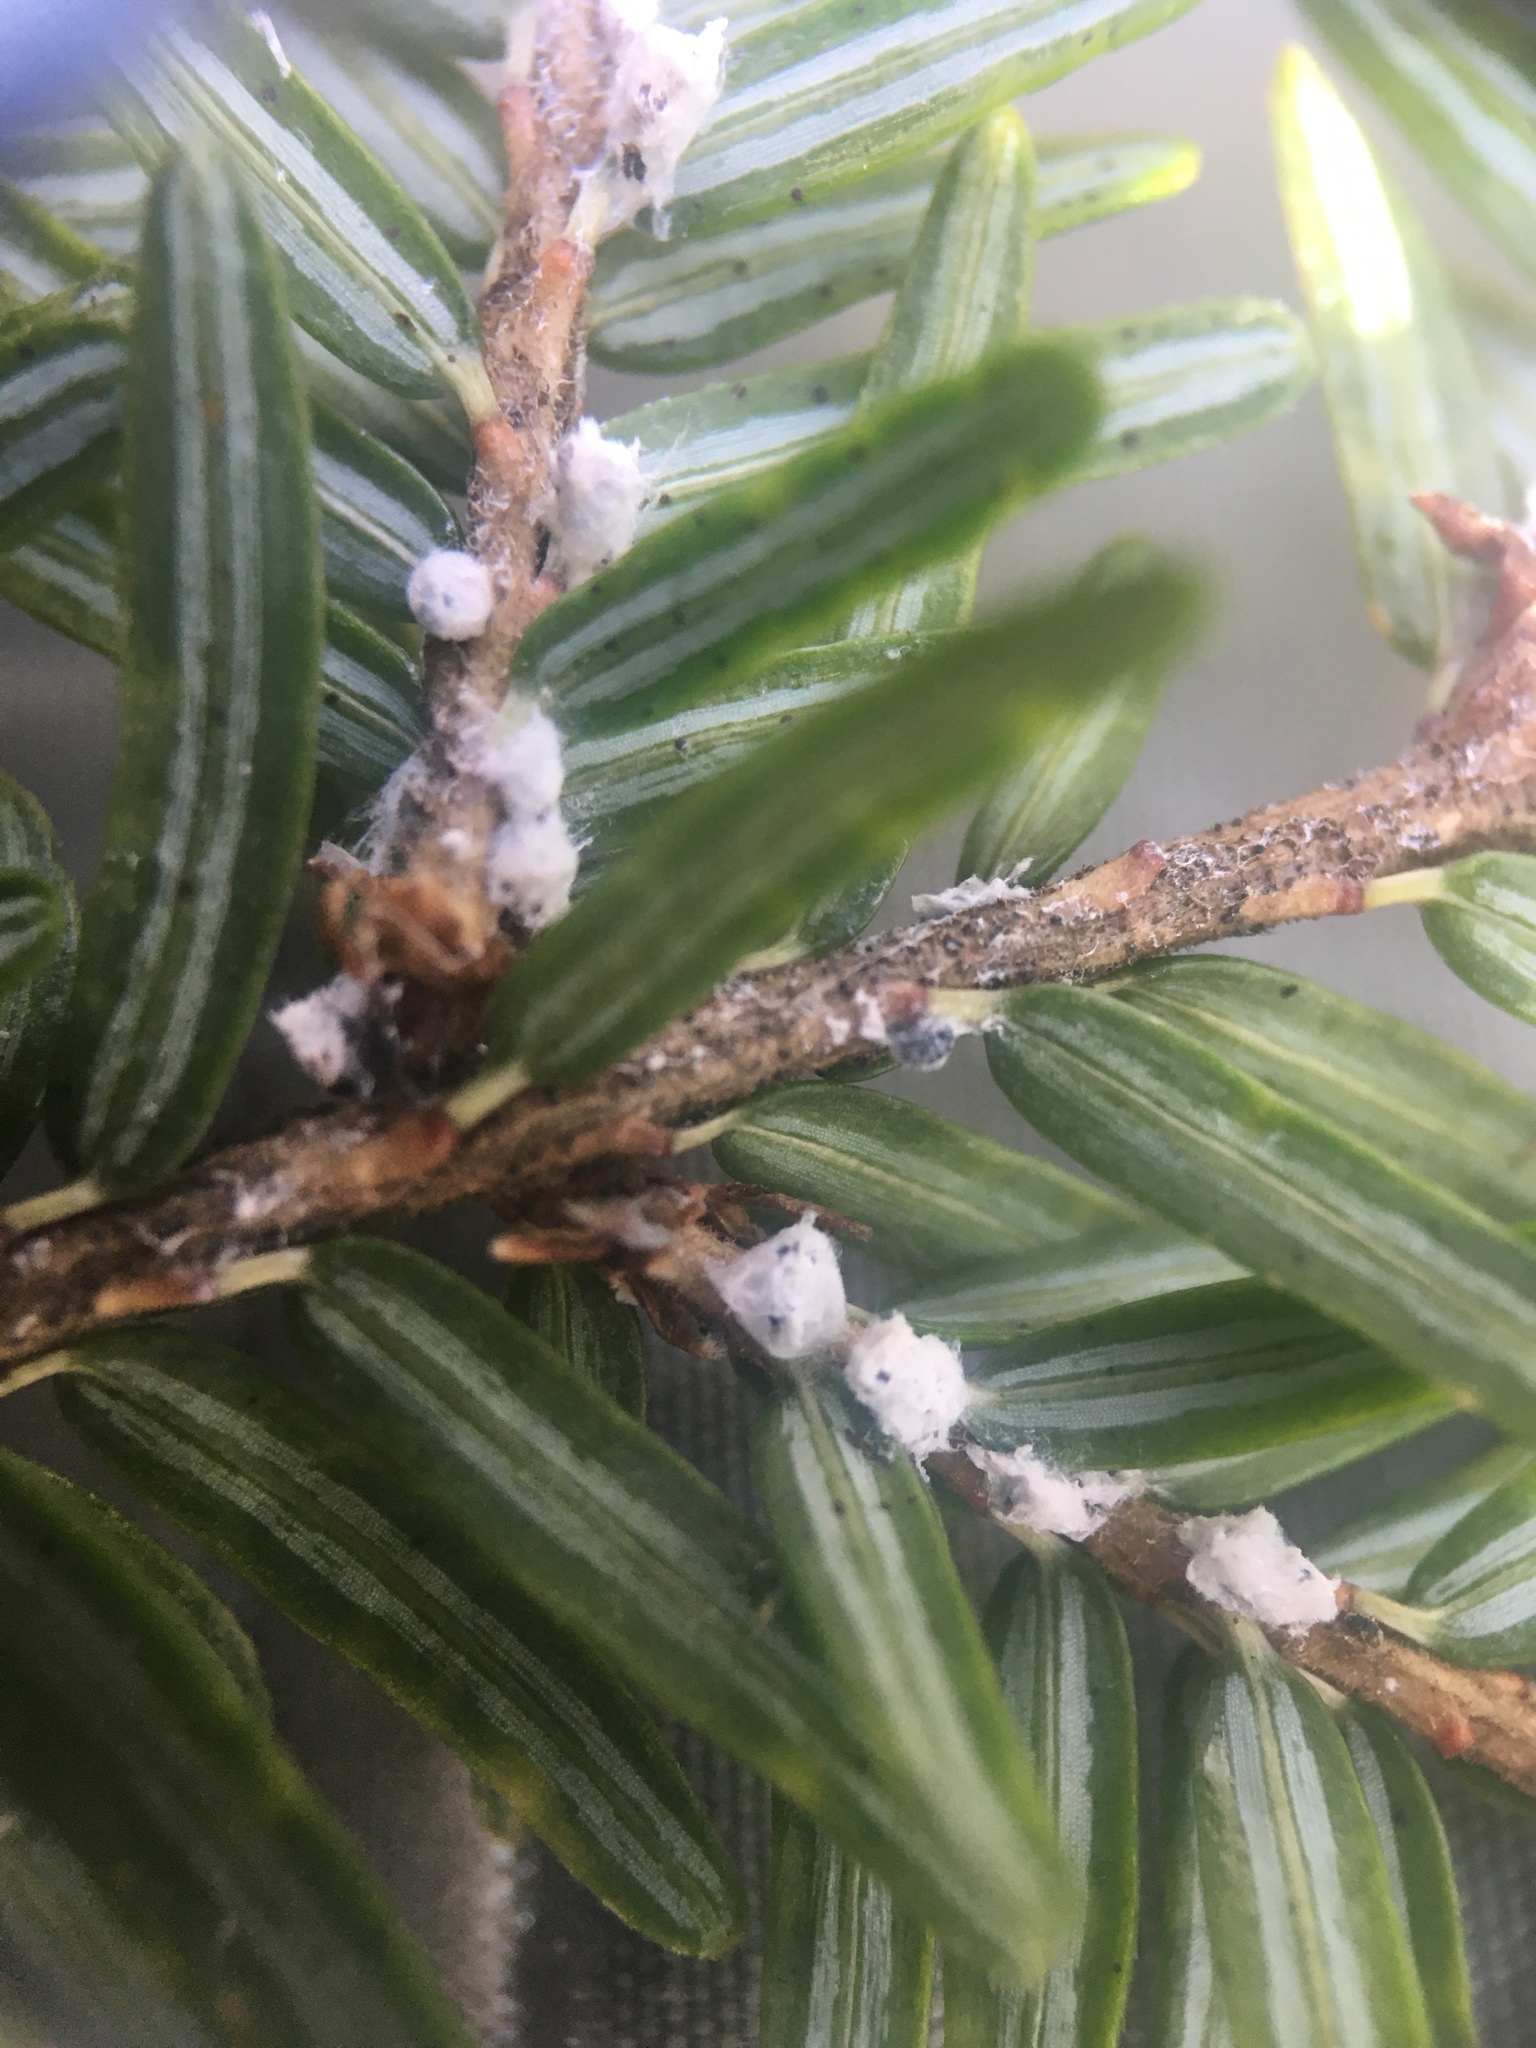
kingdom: Animalia
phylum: Arthropoda
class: Insecta
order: Hemiptera
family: Adelgidae
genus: Adelges
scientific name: Adelges tsugae
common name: Hemlock woolly adelgid
